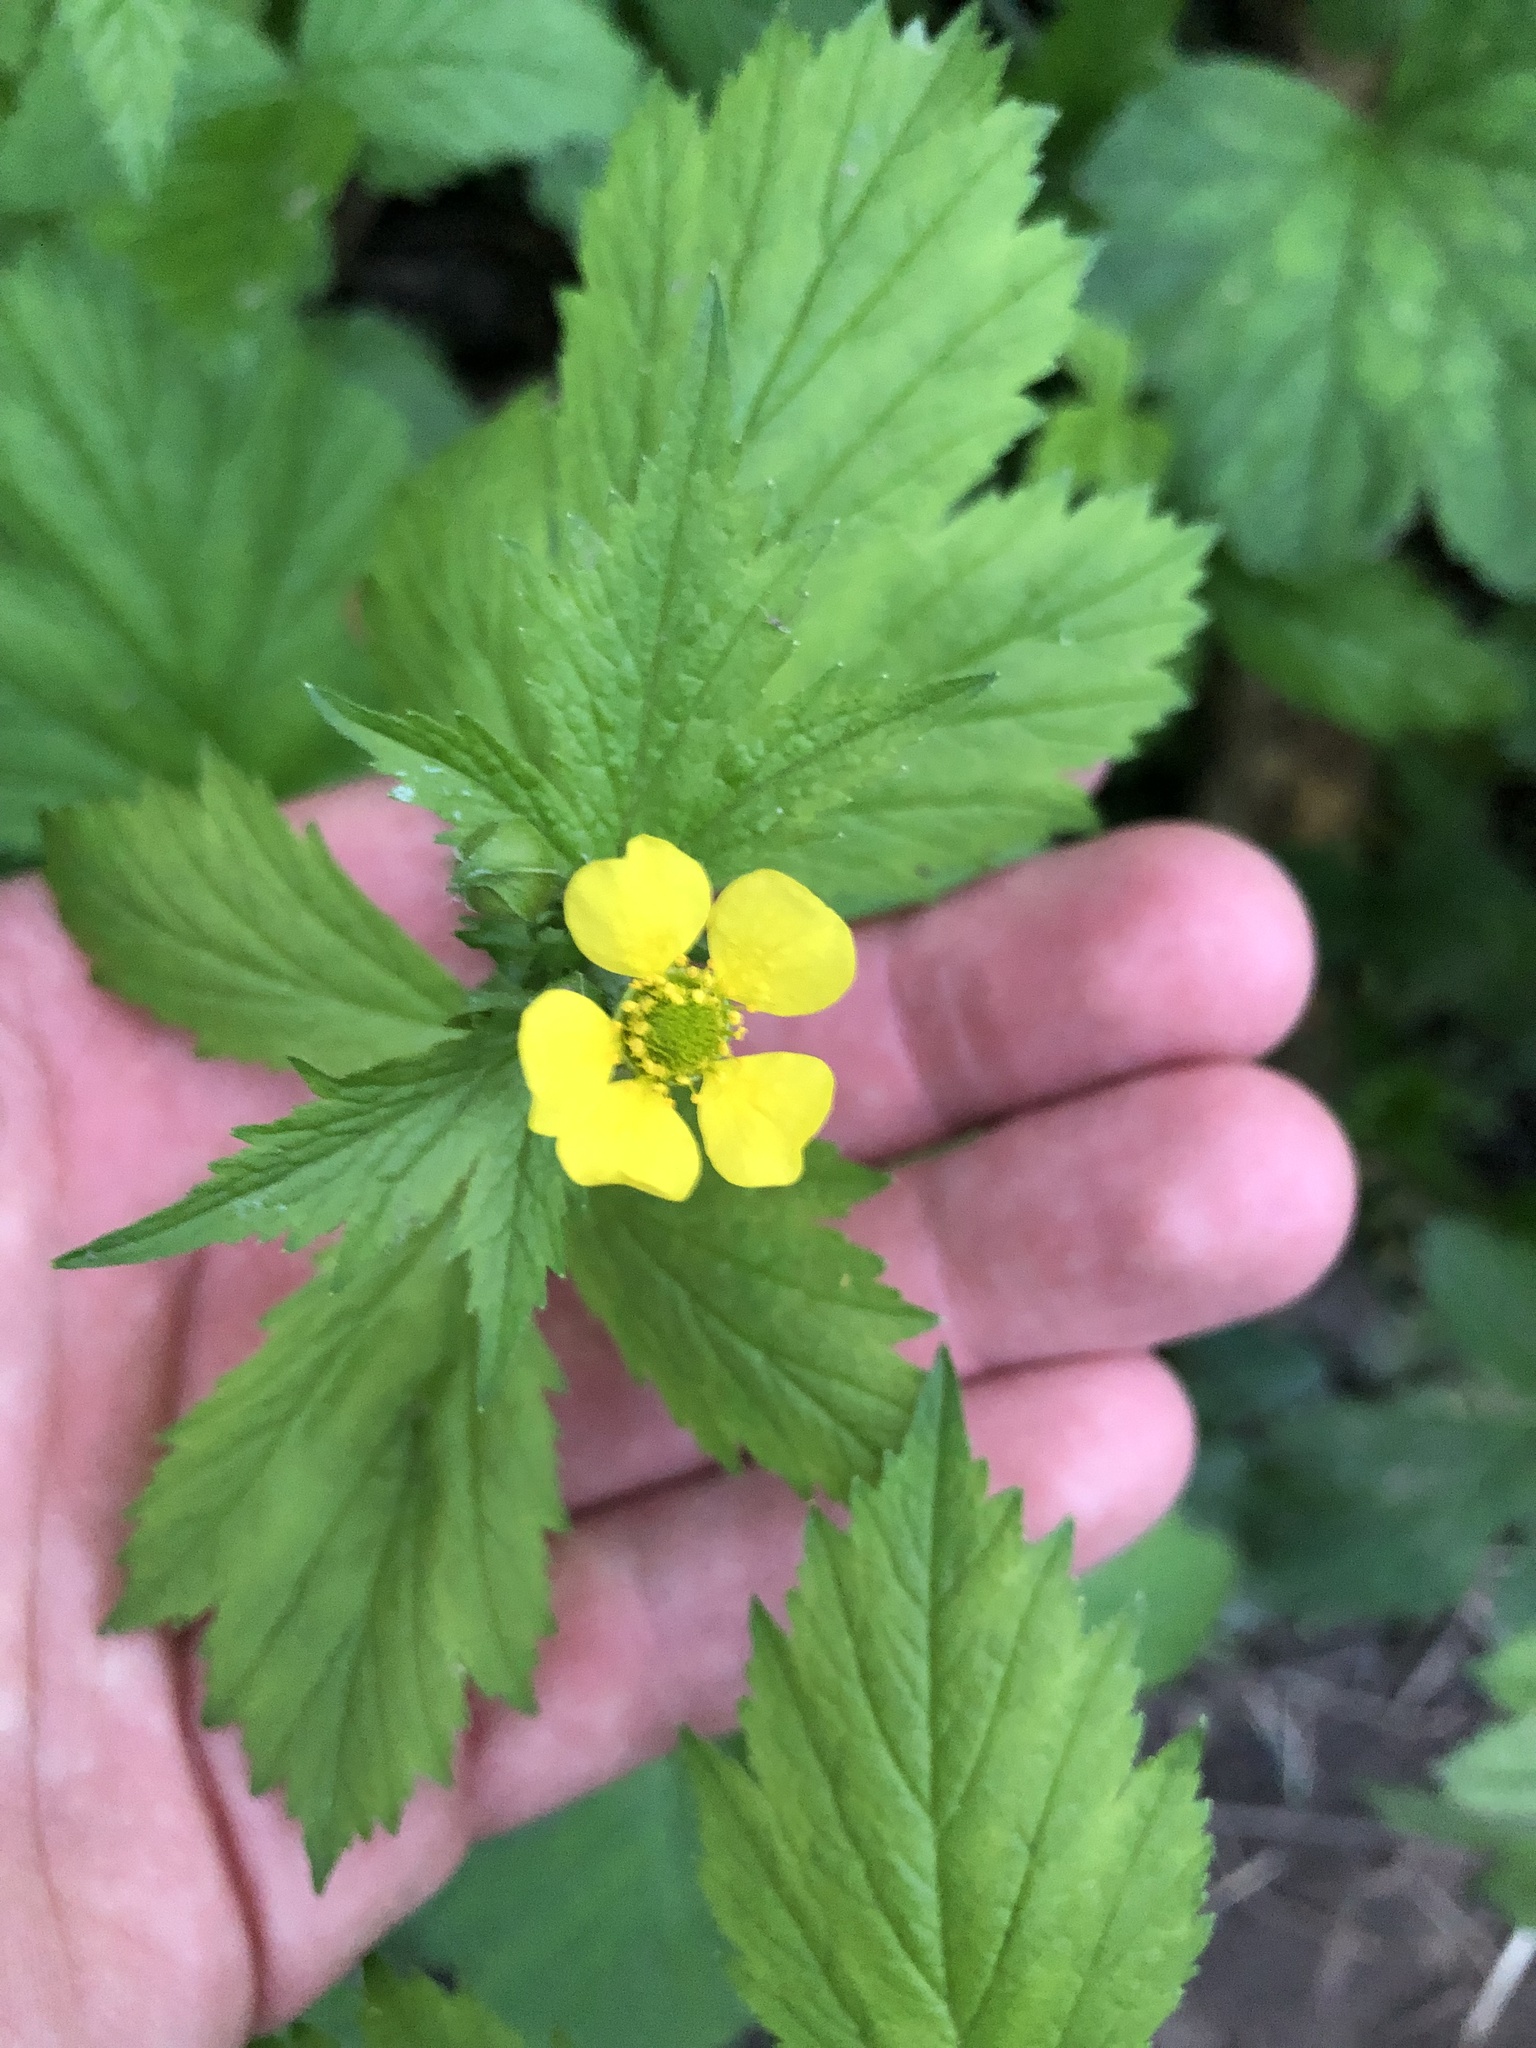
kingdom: Plantae
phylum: Tracheophyta
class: Magnoliopsida
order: Rosales
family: Rosaceae
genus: Geum
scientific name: Geum macrophyllum
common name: Large-leaved avens
